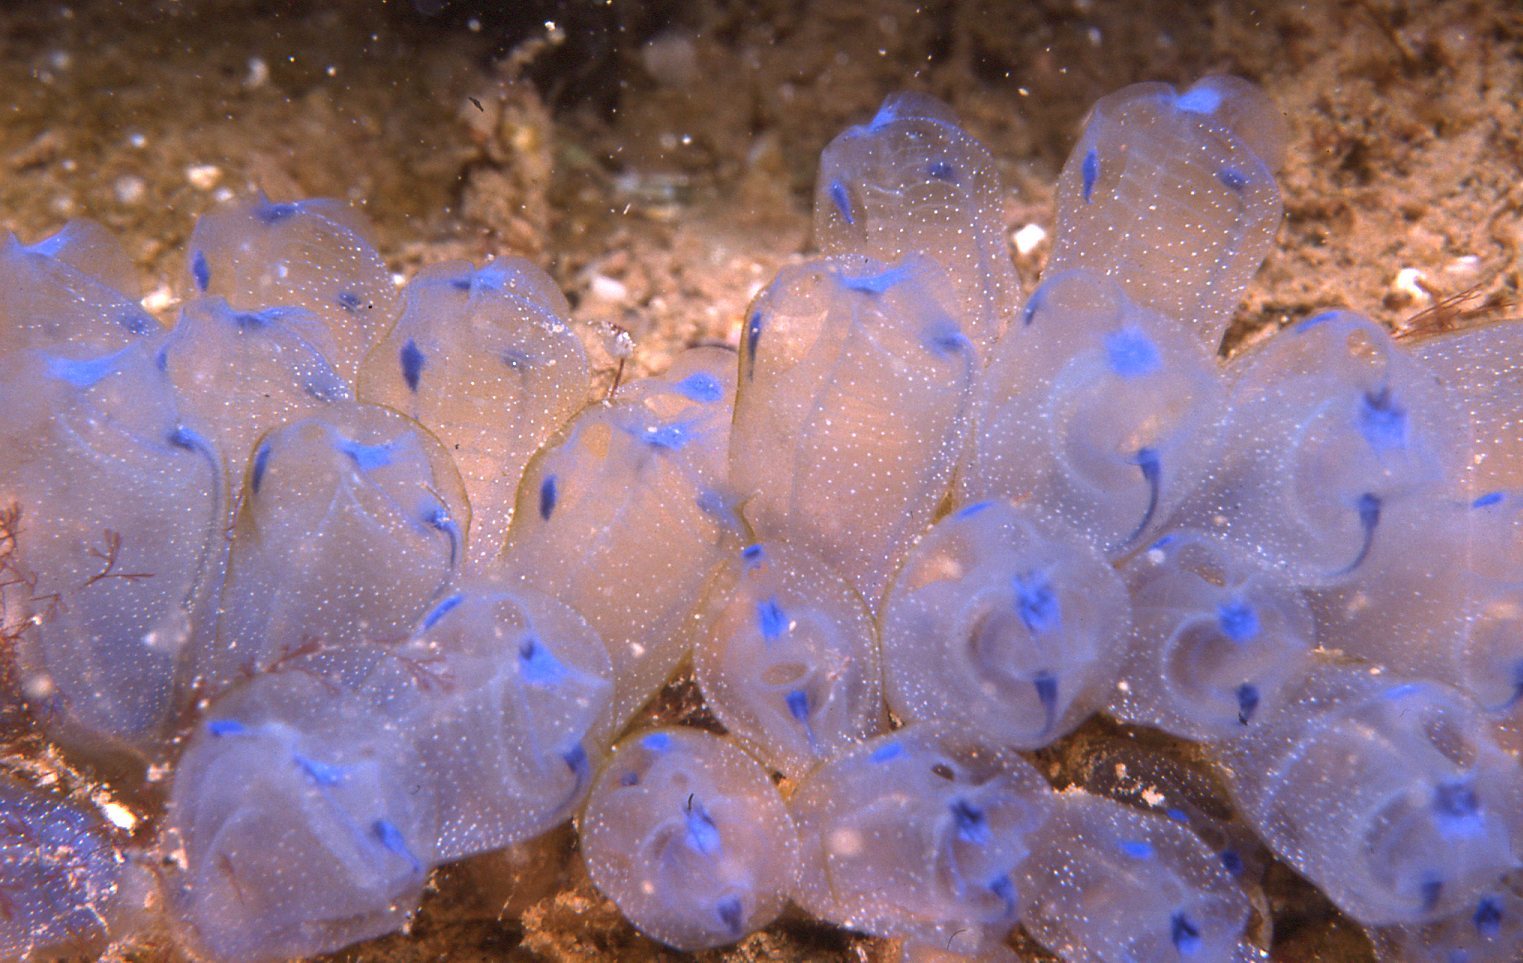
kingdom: Animalia
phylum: Echinodermata
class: Asteroidea
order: Forcipulatida
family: Asteriidae
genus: Coscinasterias
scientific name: Coscinasterias muricata
